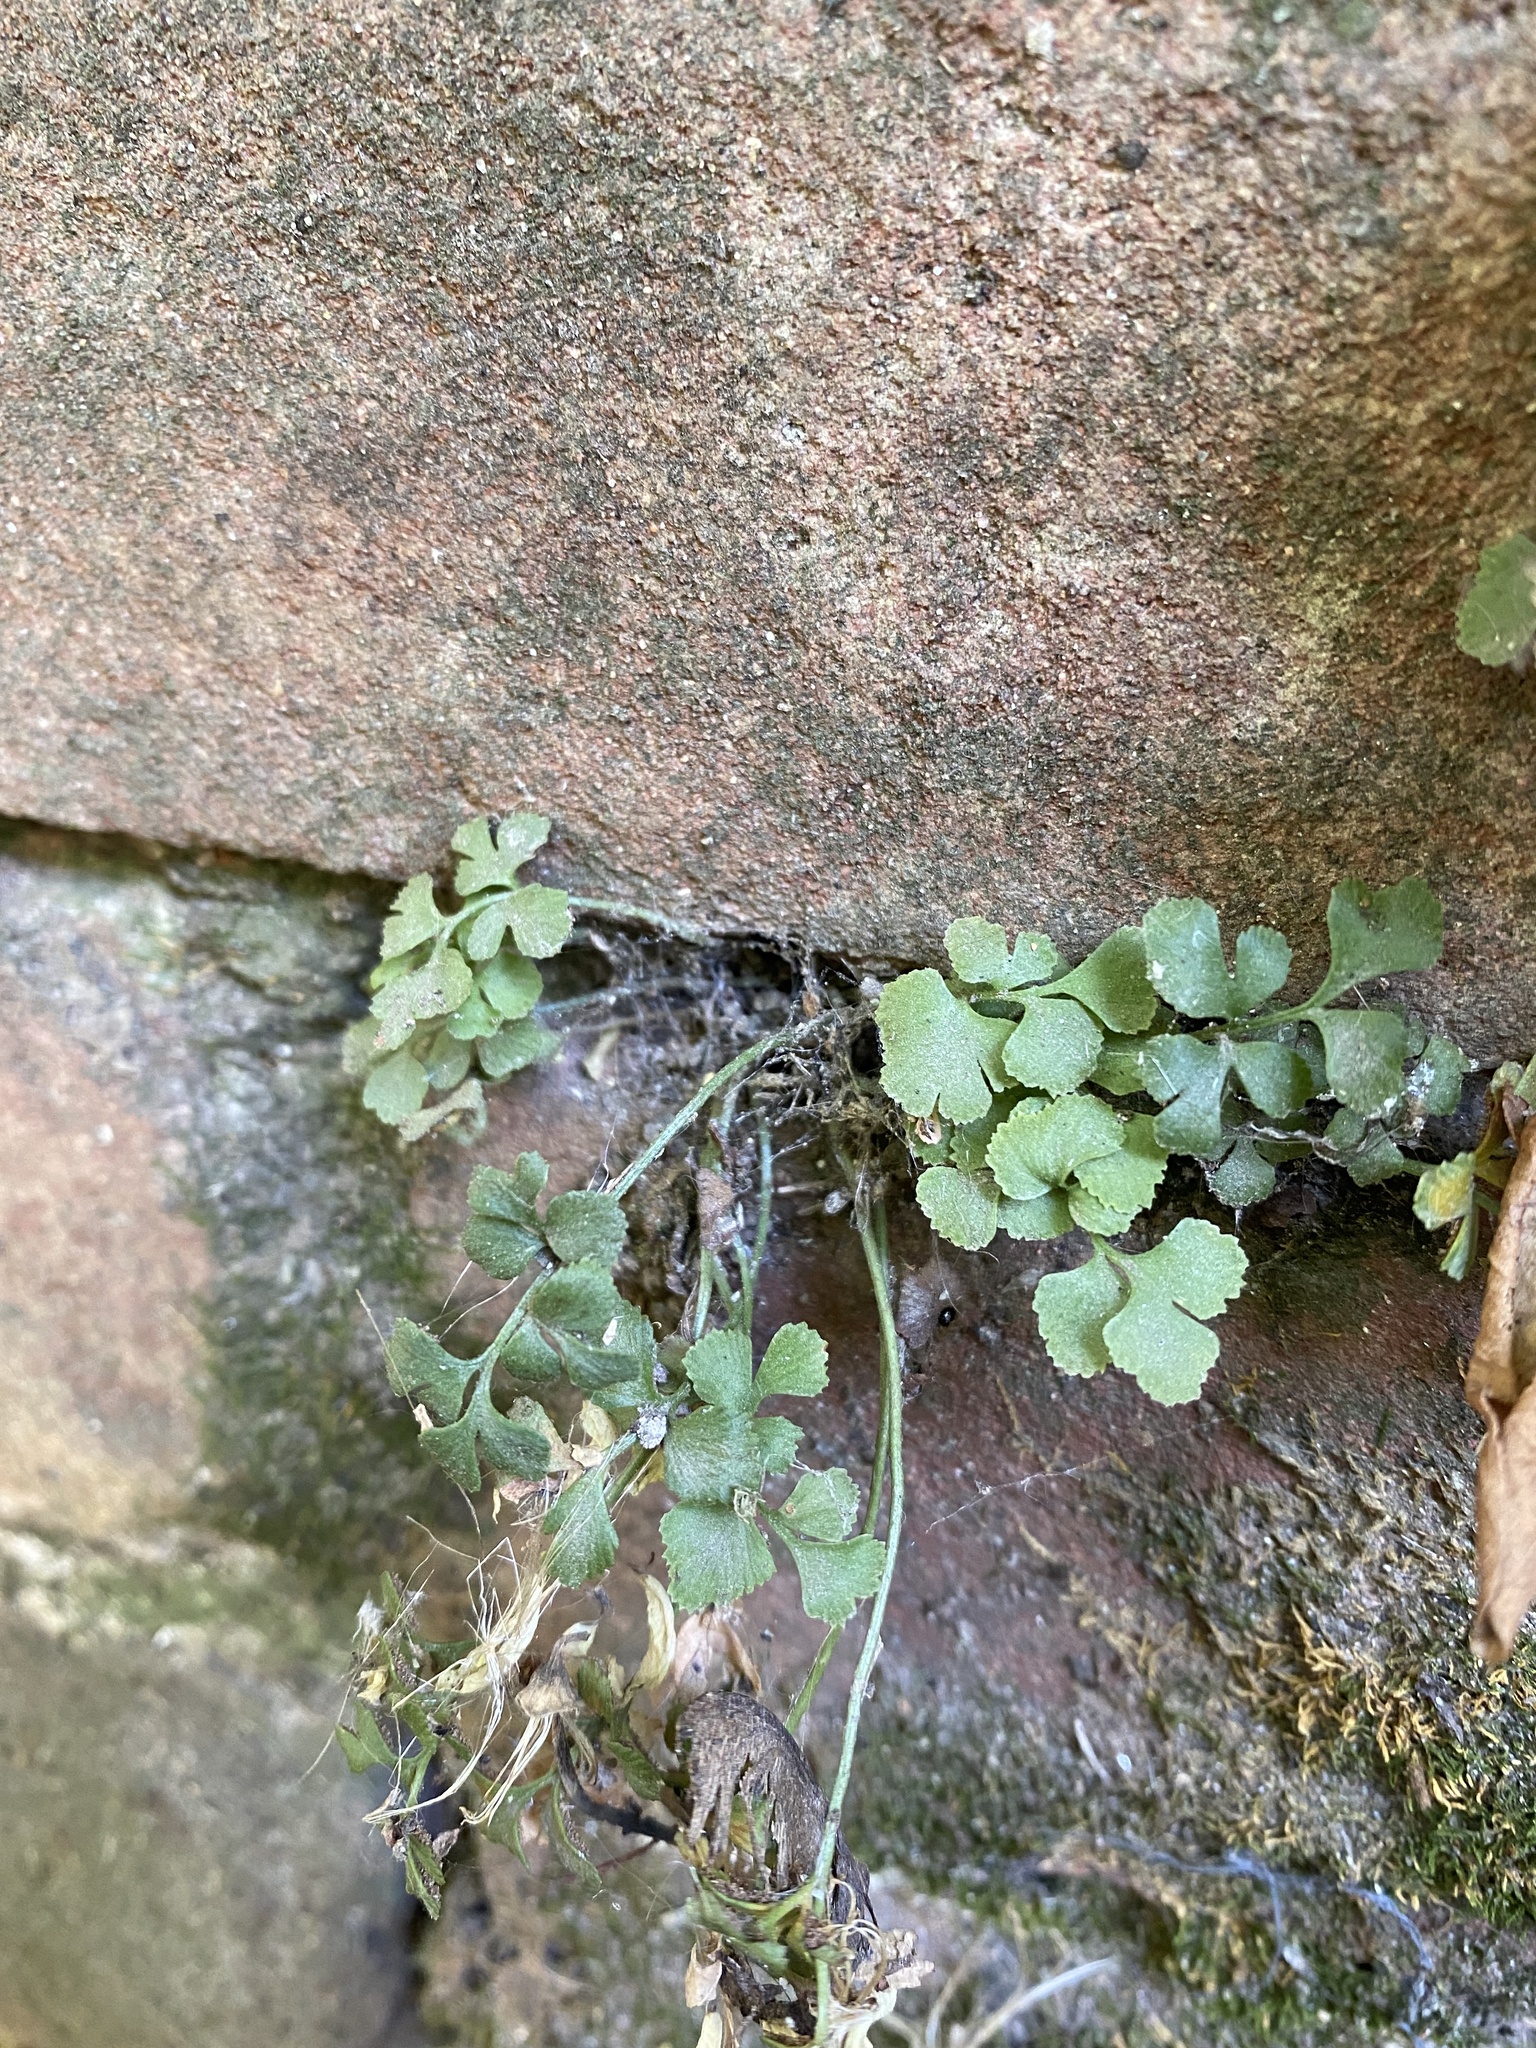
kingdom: Plantae
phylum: Tracheophyta
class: Polypodiopsida
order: Polypodiales
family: Aspleniaceae
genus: Asplenium
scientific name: Asplenium ruta-muraria
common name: Wall-rue
